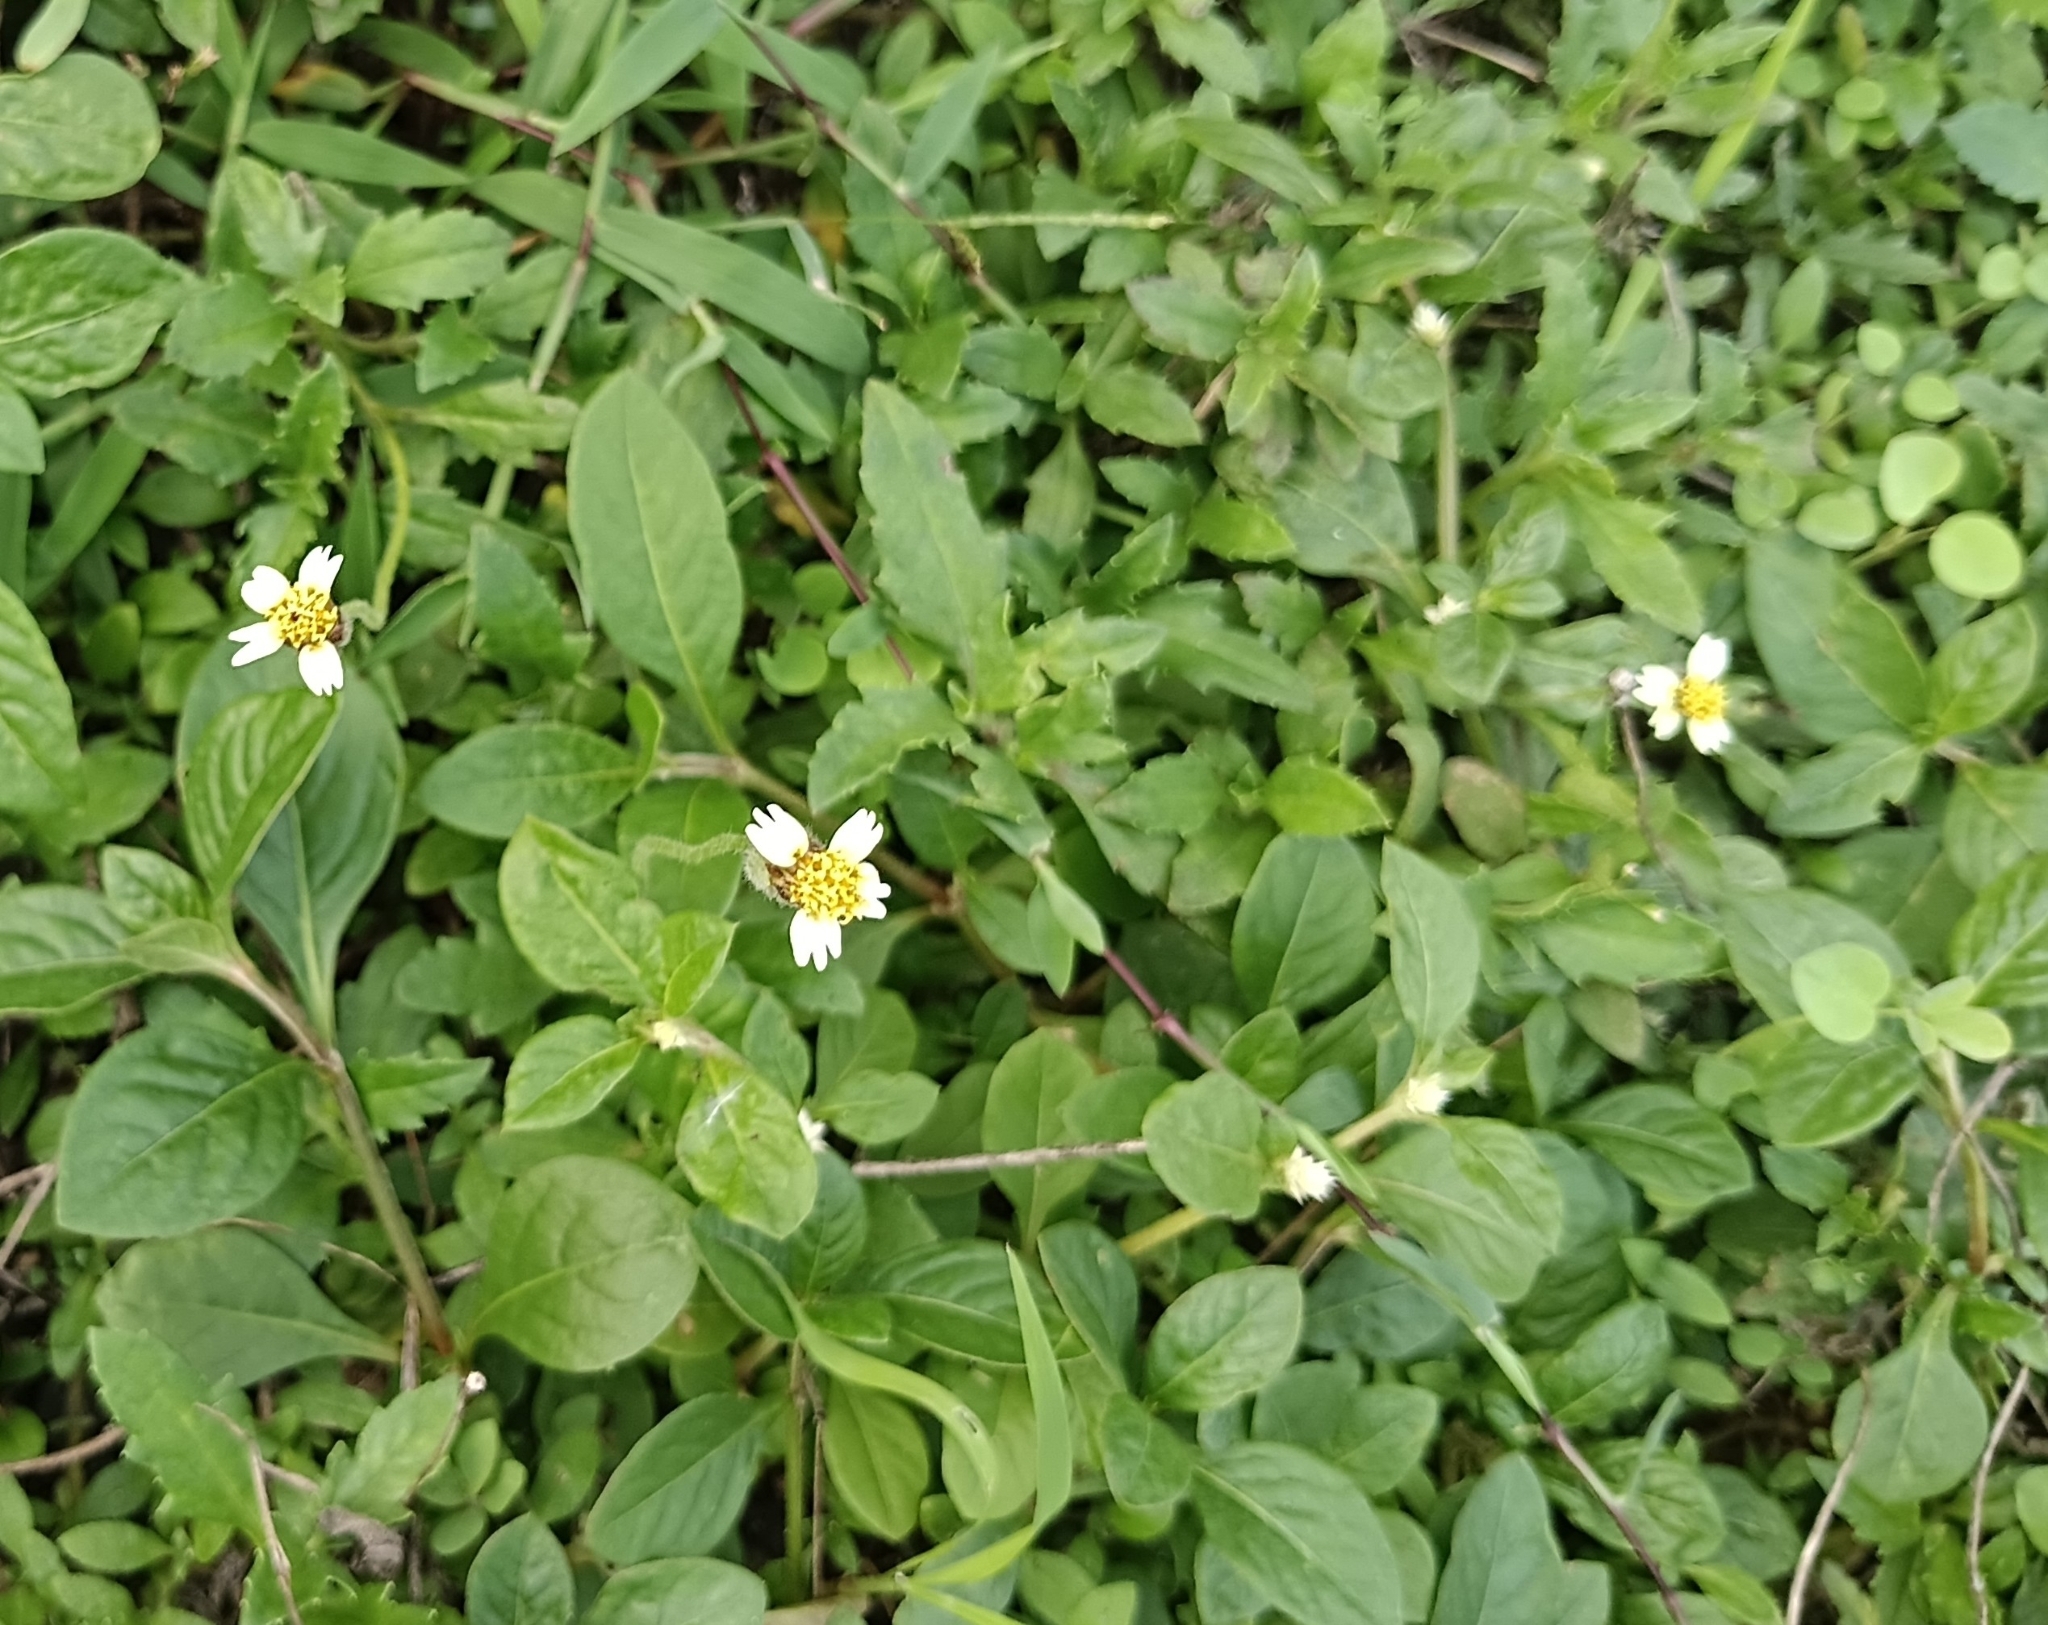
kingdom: Plantae
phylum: Tracheophyta
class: Magnoliopsida
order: Asterales
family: Asteraceae
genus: Tridax
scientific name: Tridax procumbens
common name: Coatbuttons
